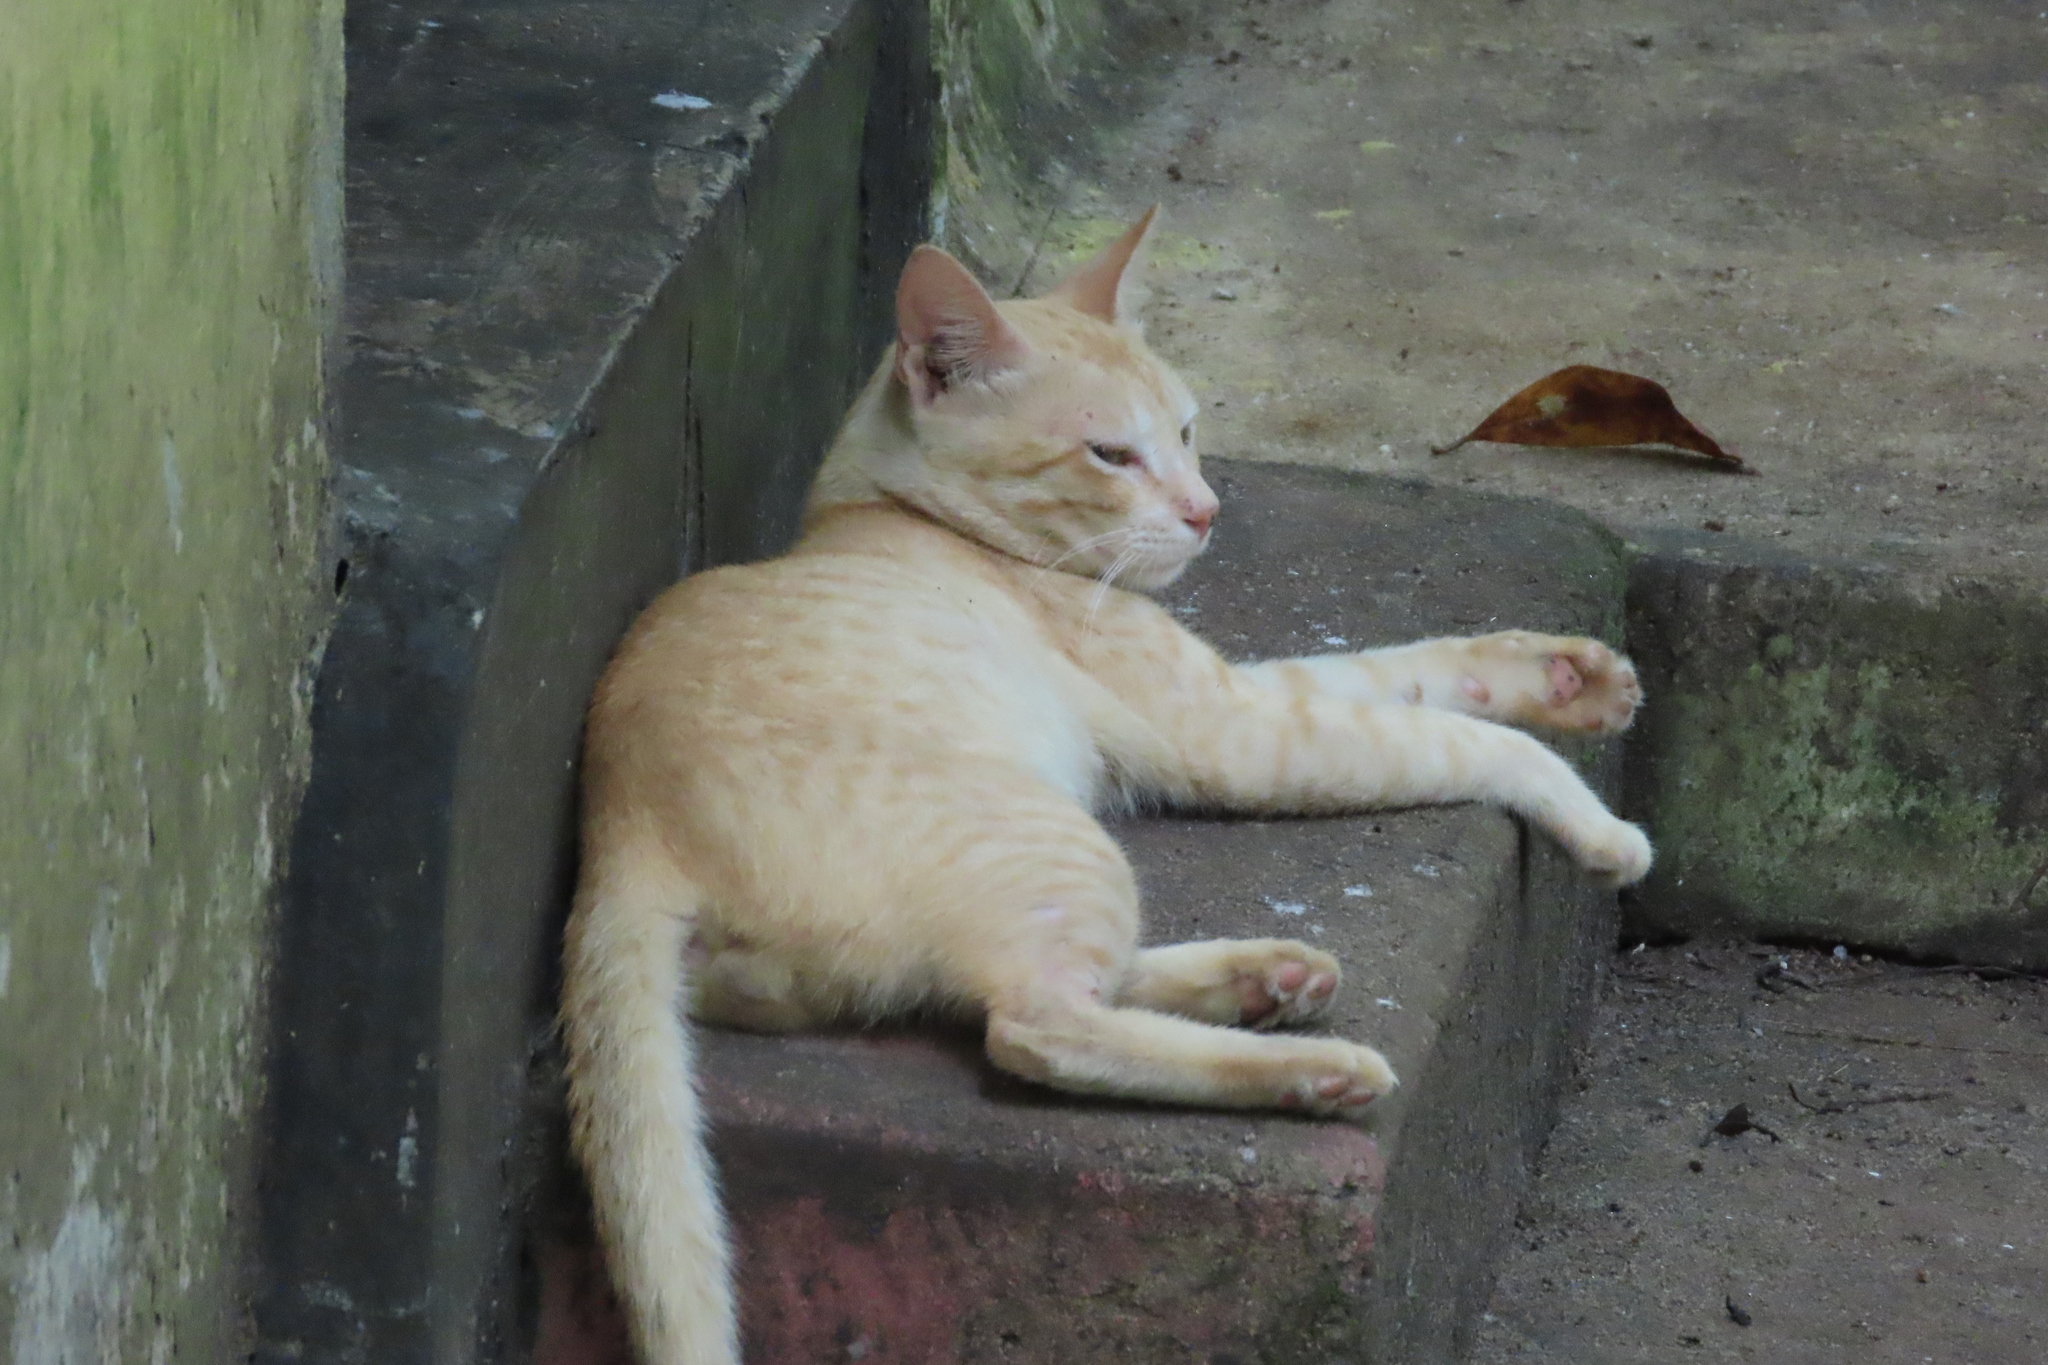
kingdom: Animalia
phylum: Chordata
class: Mammalia
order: Carnivora
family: Felidae
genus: Felis
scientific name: Felis catus
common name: Domestic cat
